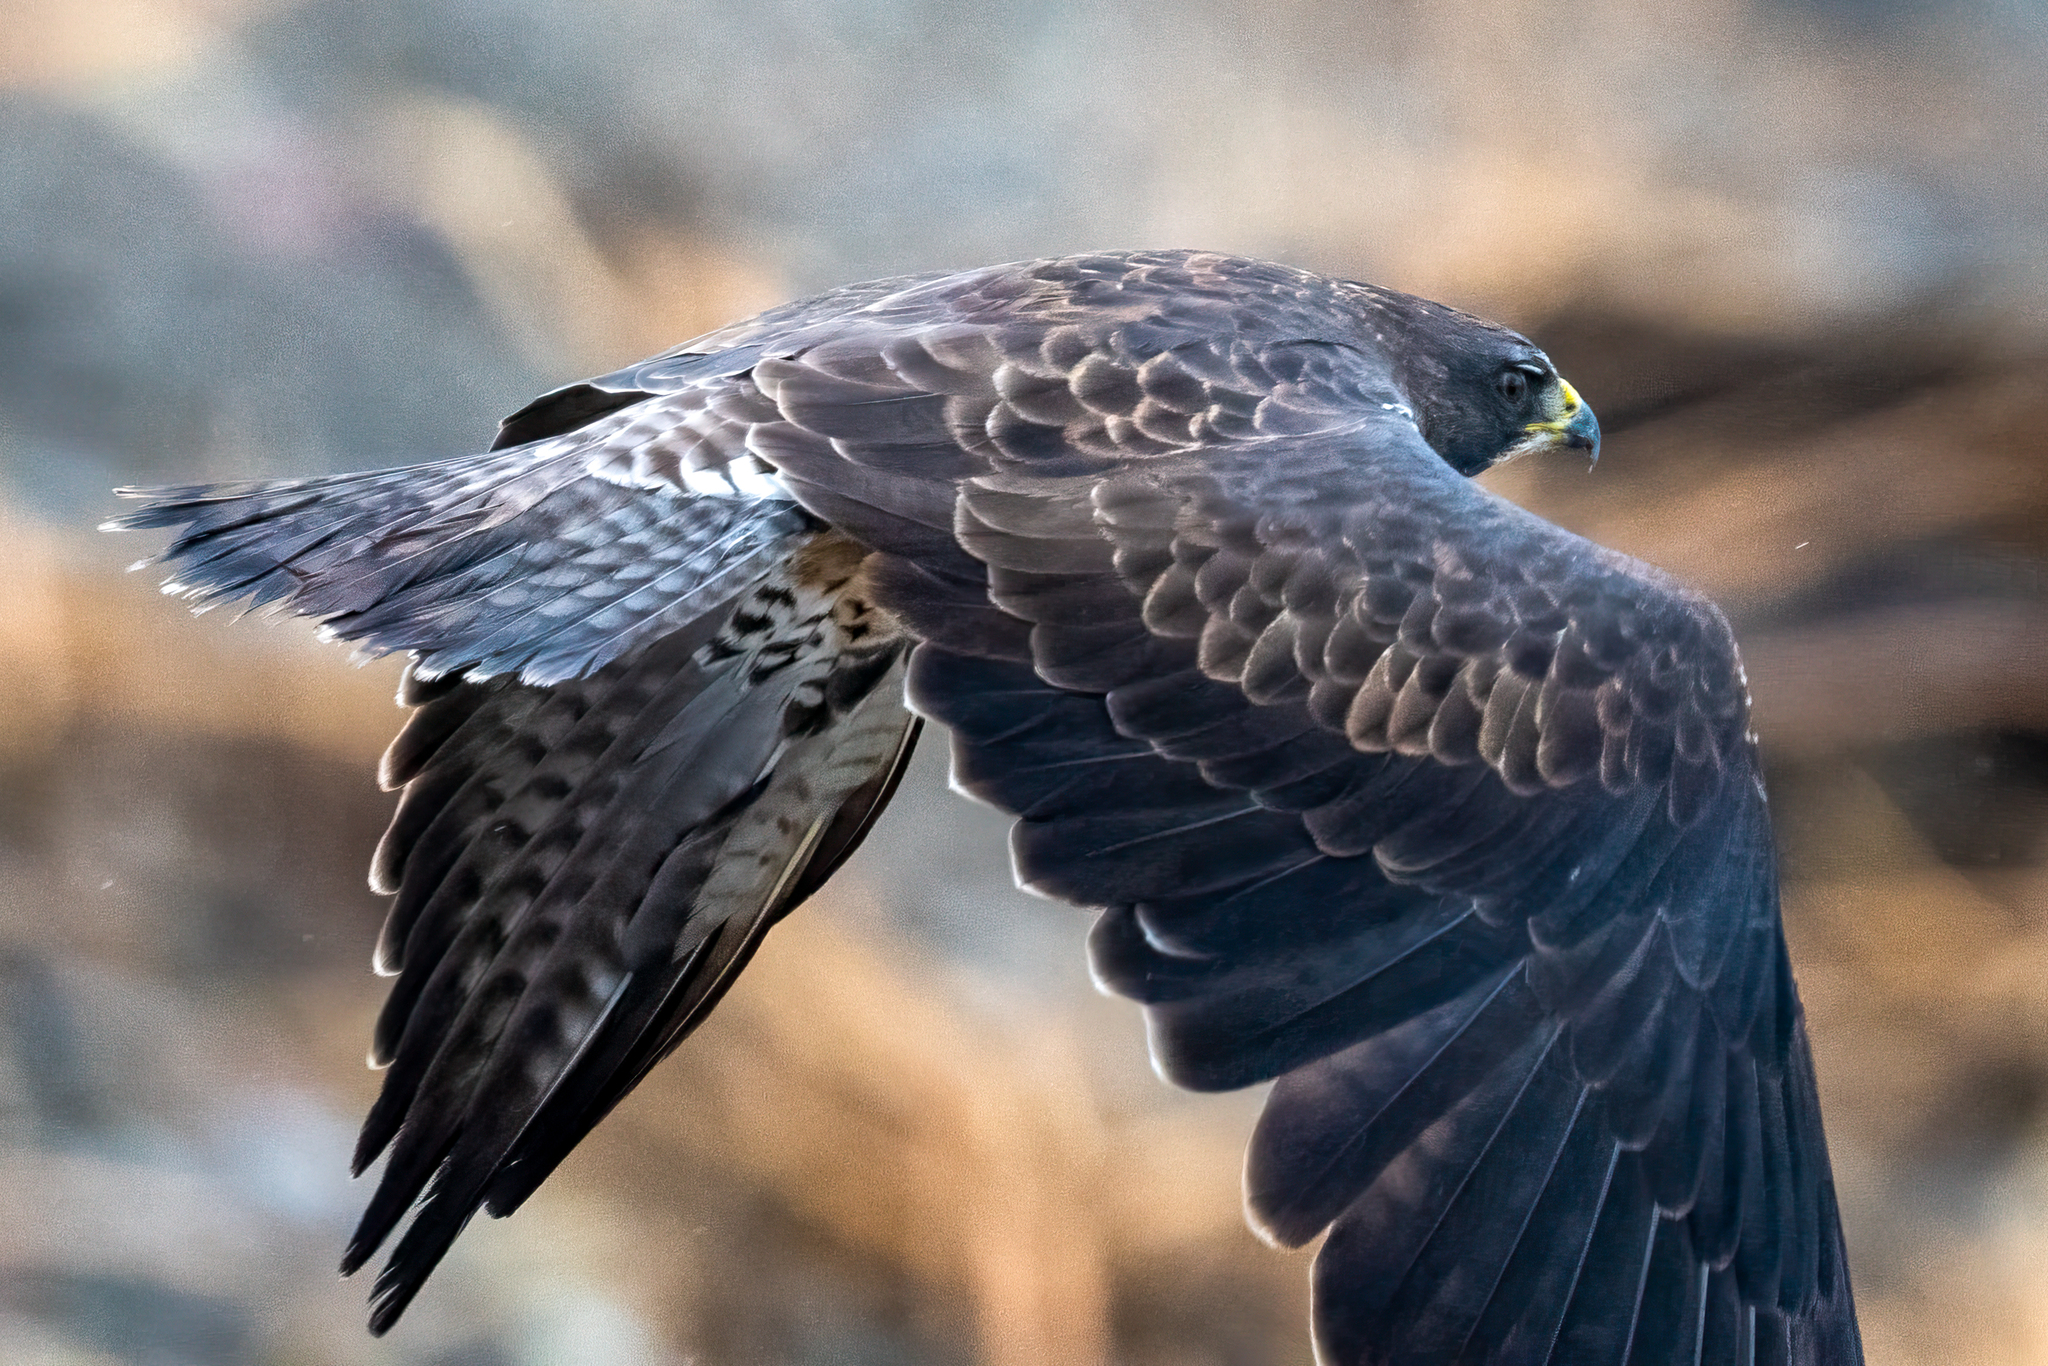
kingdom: Animalia
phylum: Chordata
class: Aves
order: Accipitriformes
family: Accipitridae
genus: Buteo
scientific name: Buteo swainsoni
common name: Swainson's hawk
